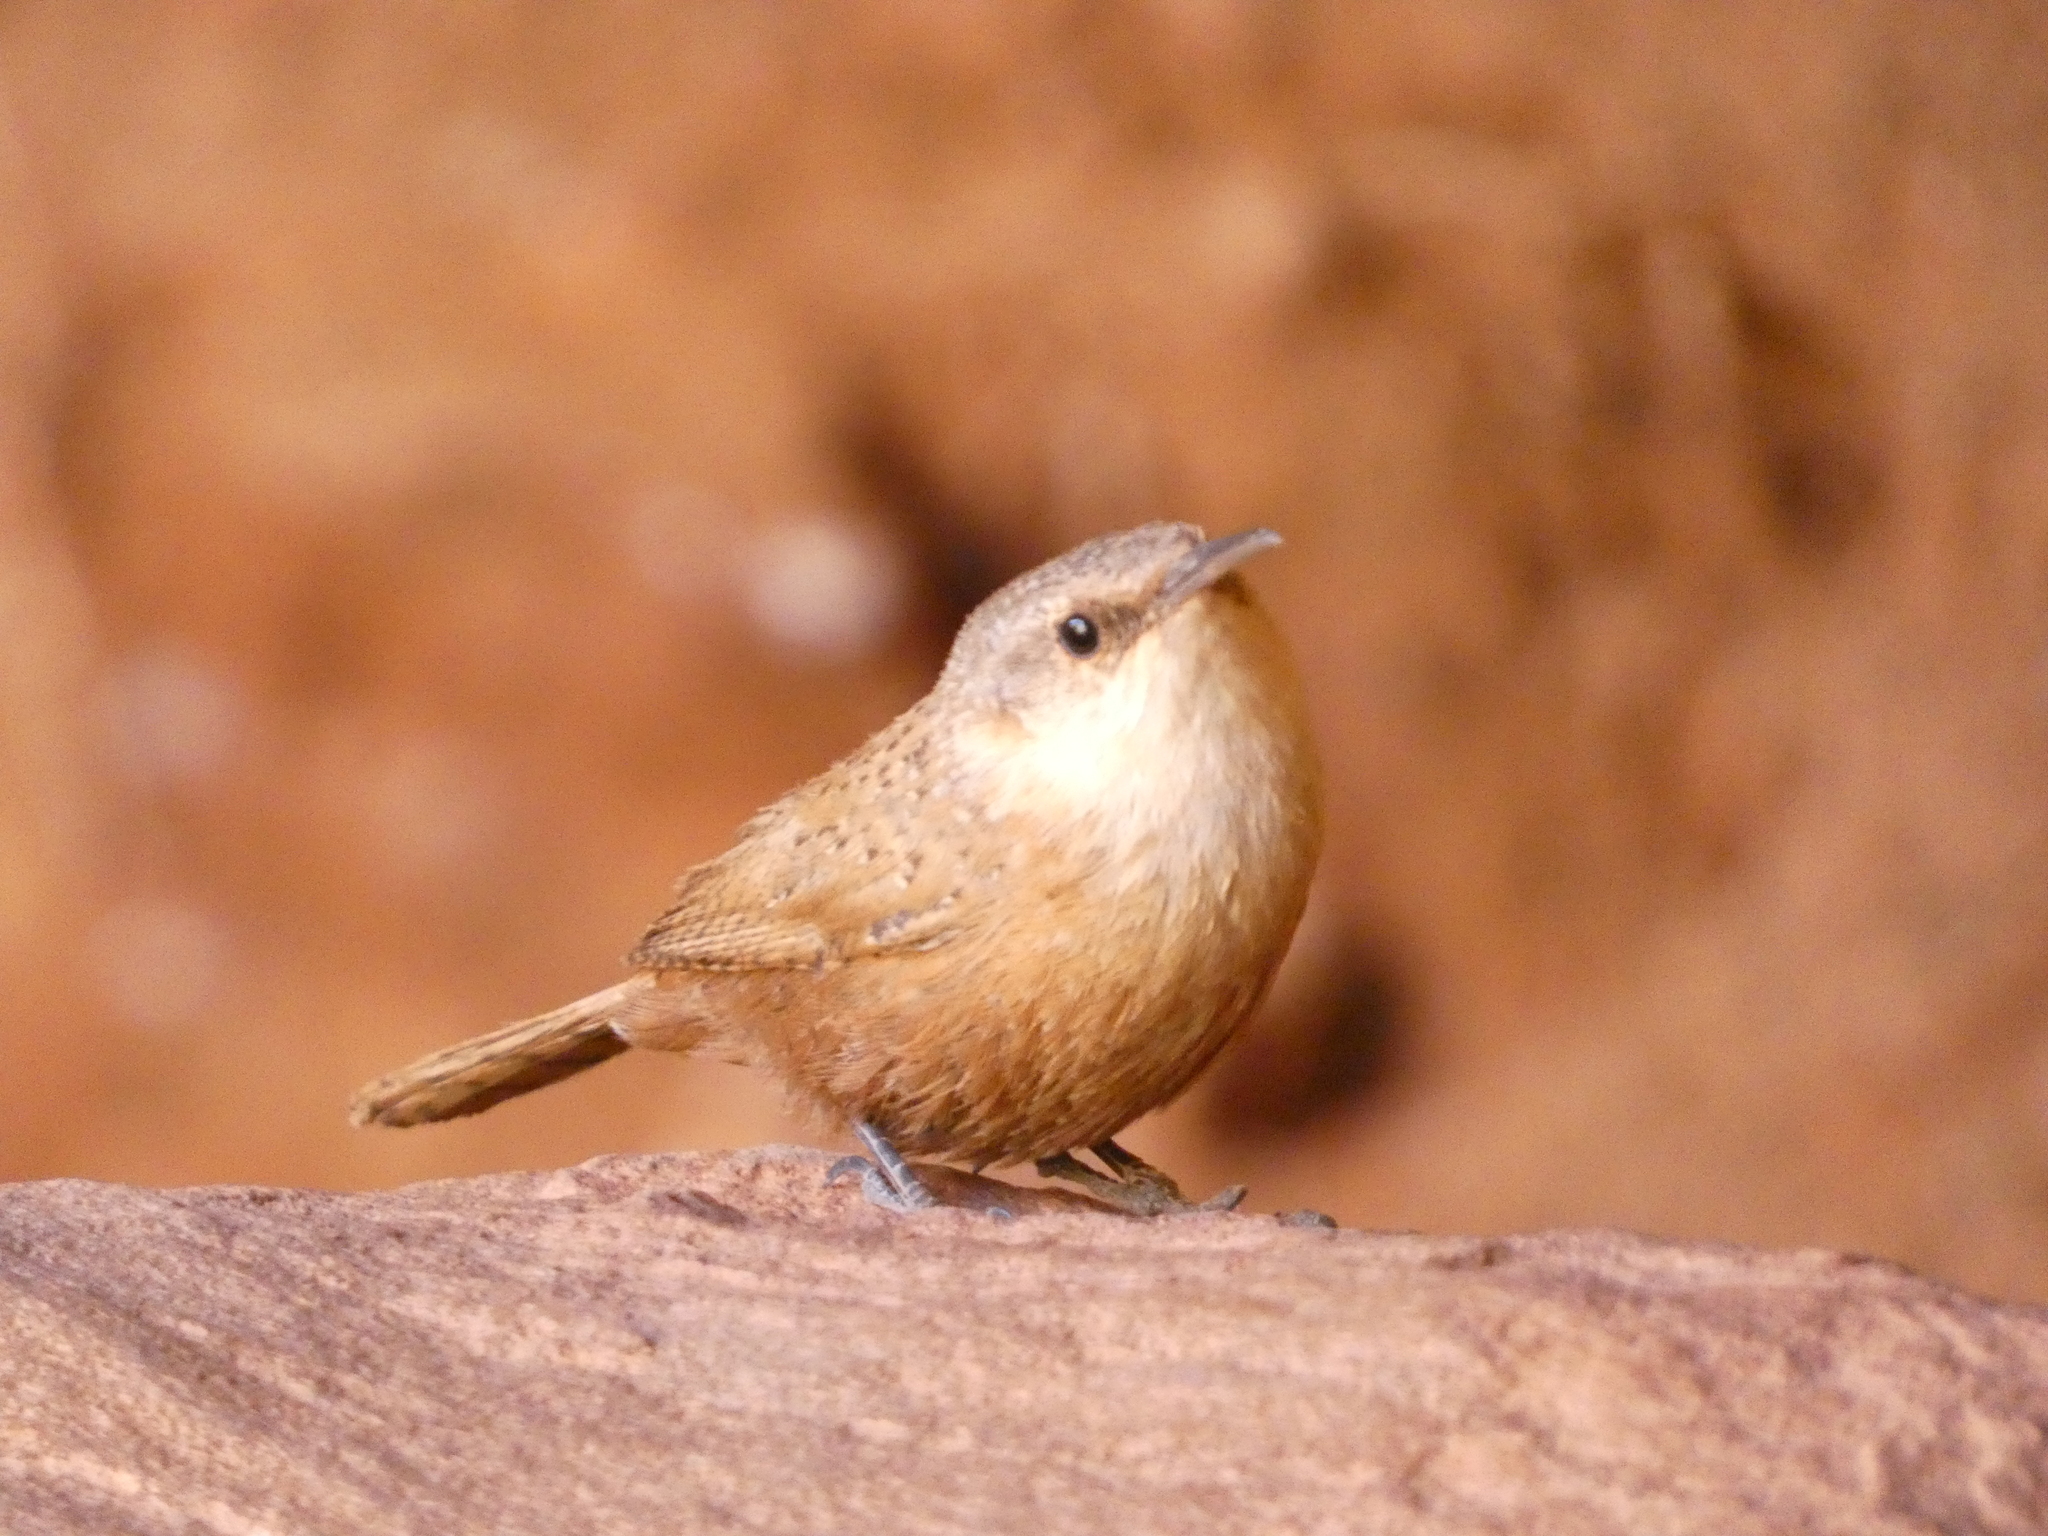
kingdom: Animalia
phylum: Chordata
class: Aves
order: Passeriformes
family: Troglodytidae
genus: Catherpes
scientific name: Catherpes mexicanus
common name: Canyon wren
